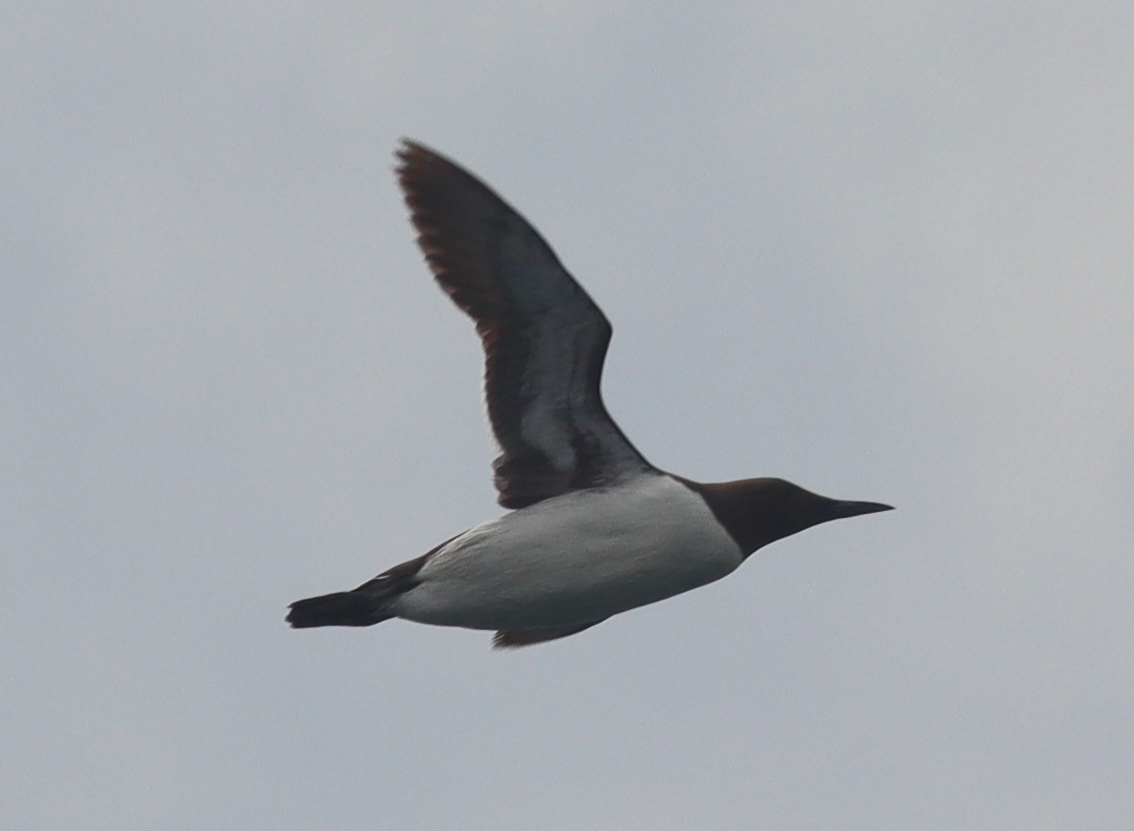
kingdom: Animalia
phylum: Chordata
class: Aves
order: Charadriiformes
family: Alcidae
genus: Uria
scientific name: Uria aalge
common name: Common murre
